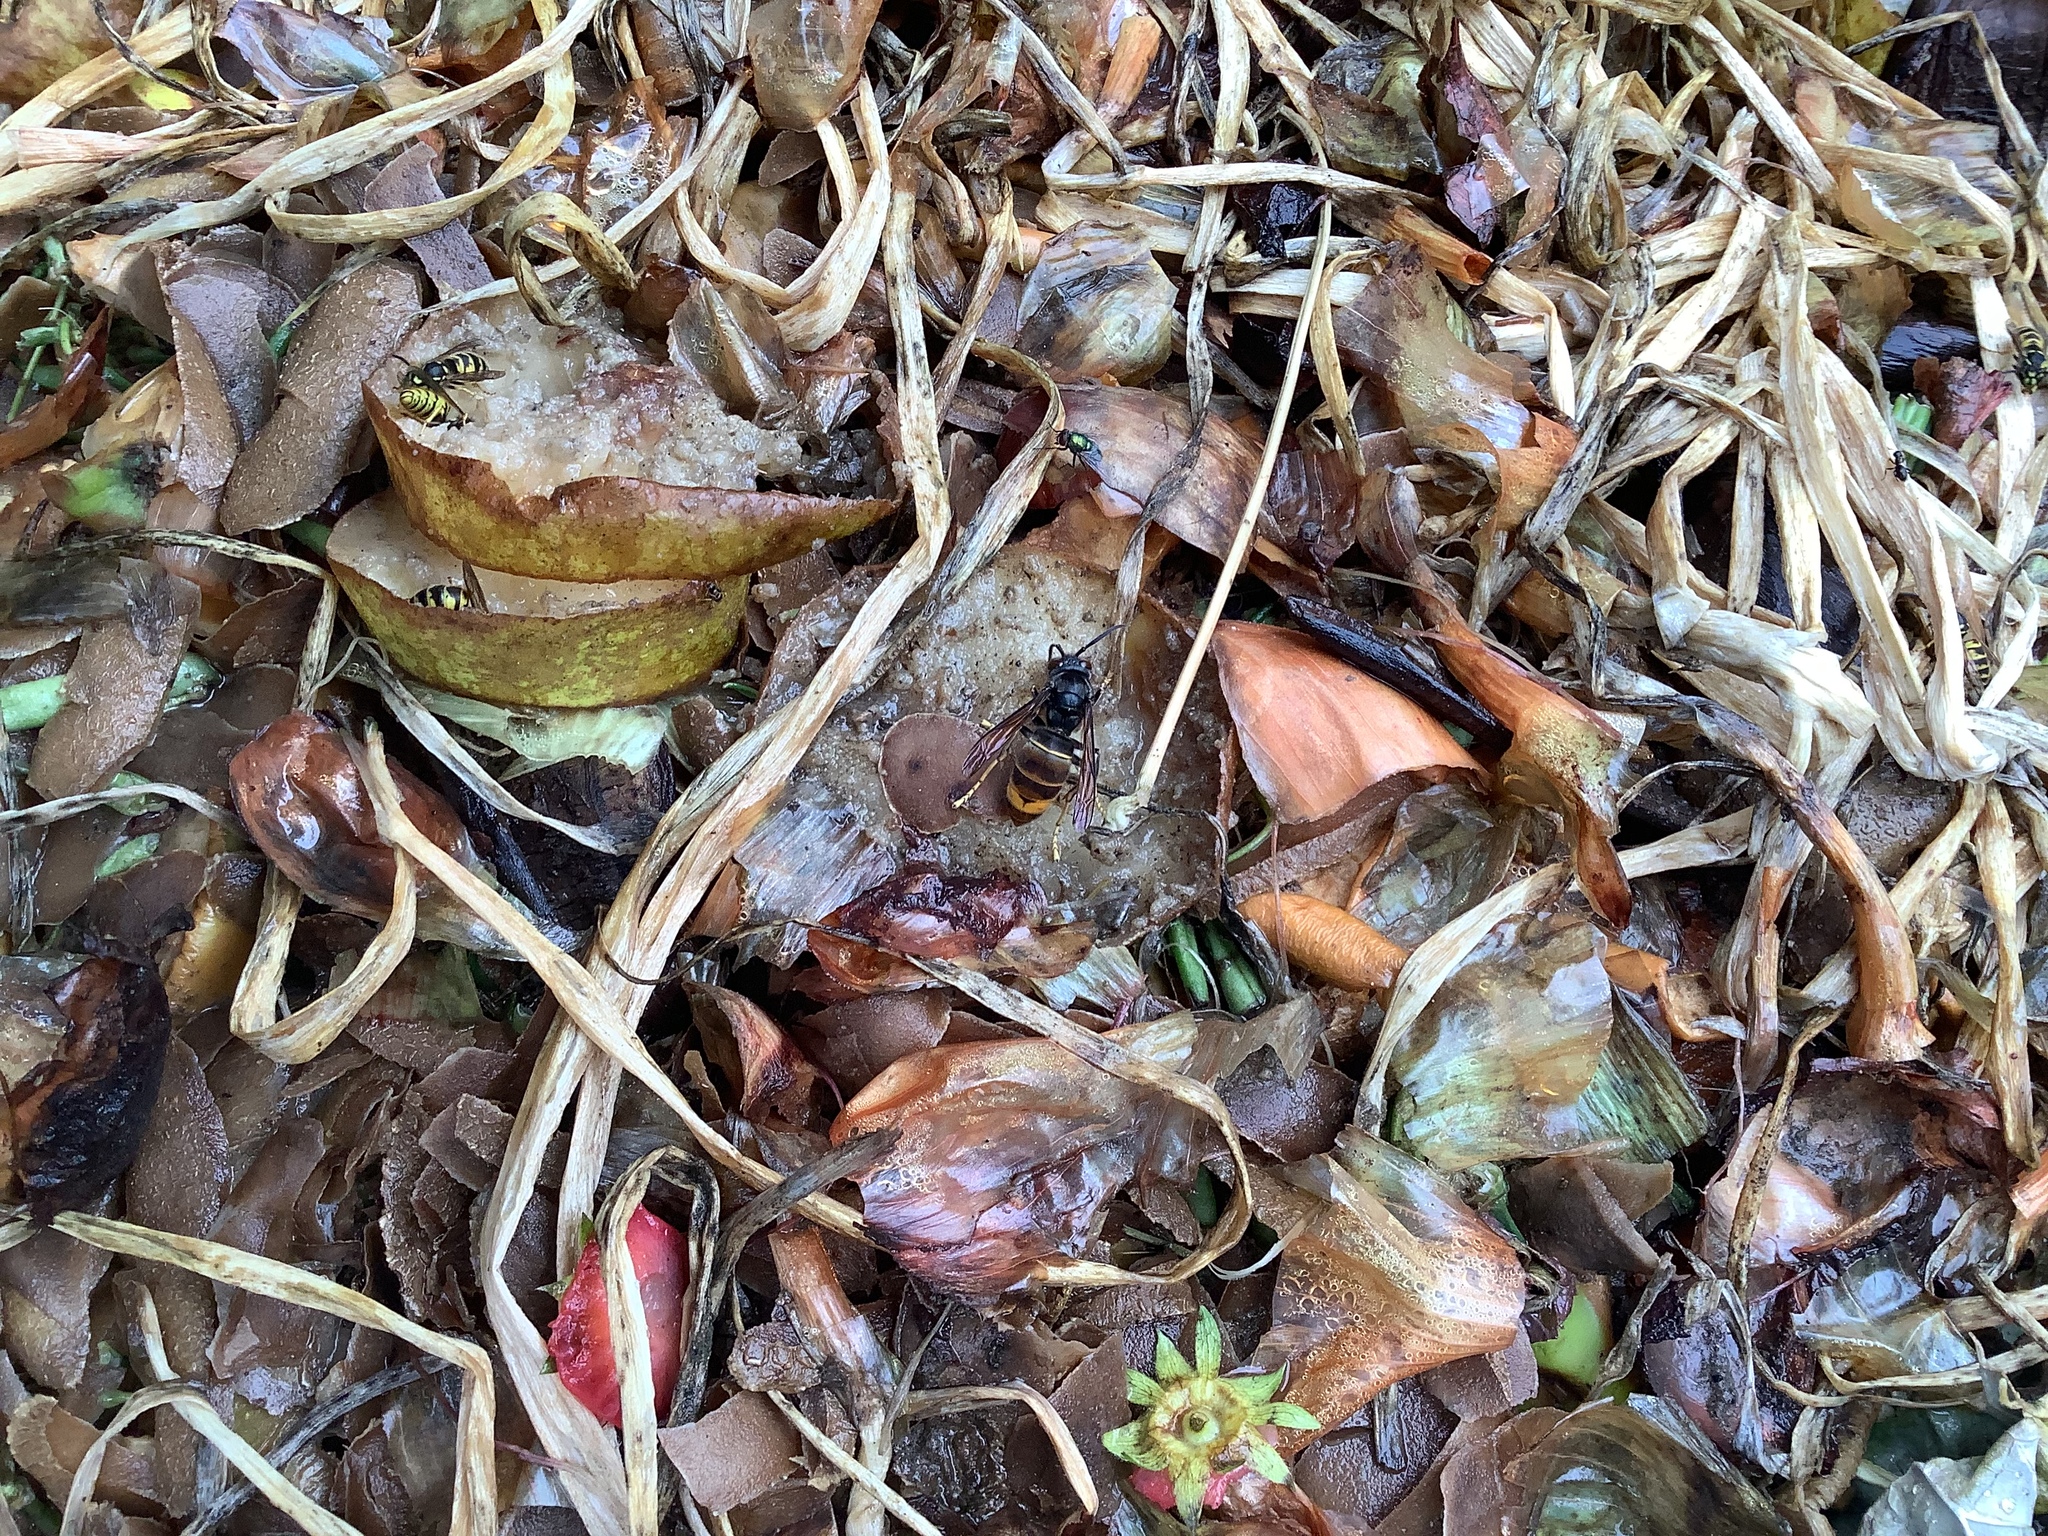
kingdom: Animalia
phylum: Arthropoda
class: Insecta
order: Hymenoptera
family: Vespidae
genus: Vespa
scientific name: Vespa velutina
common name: Asian hornet
